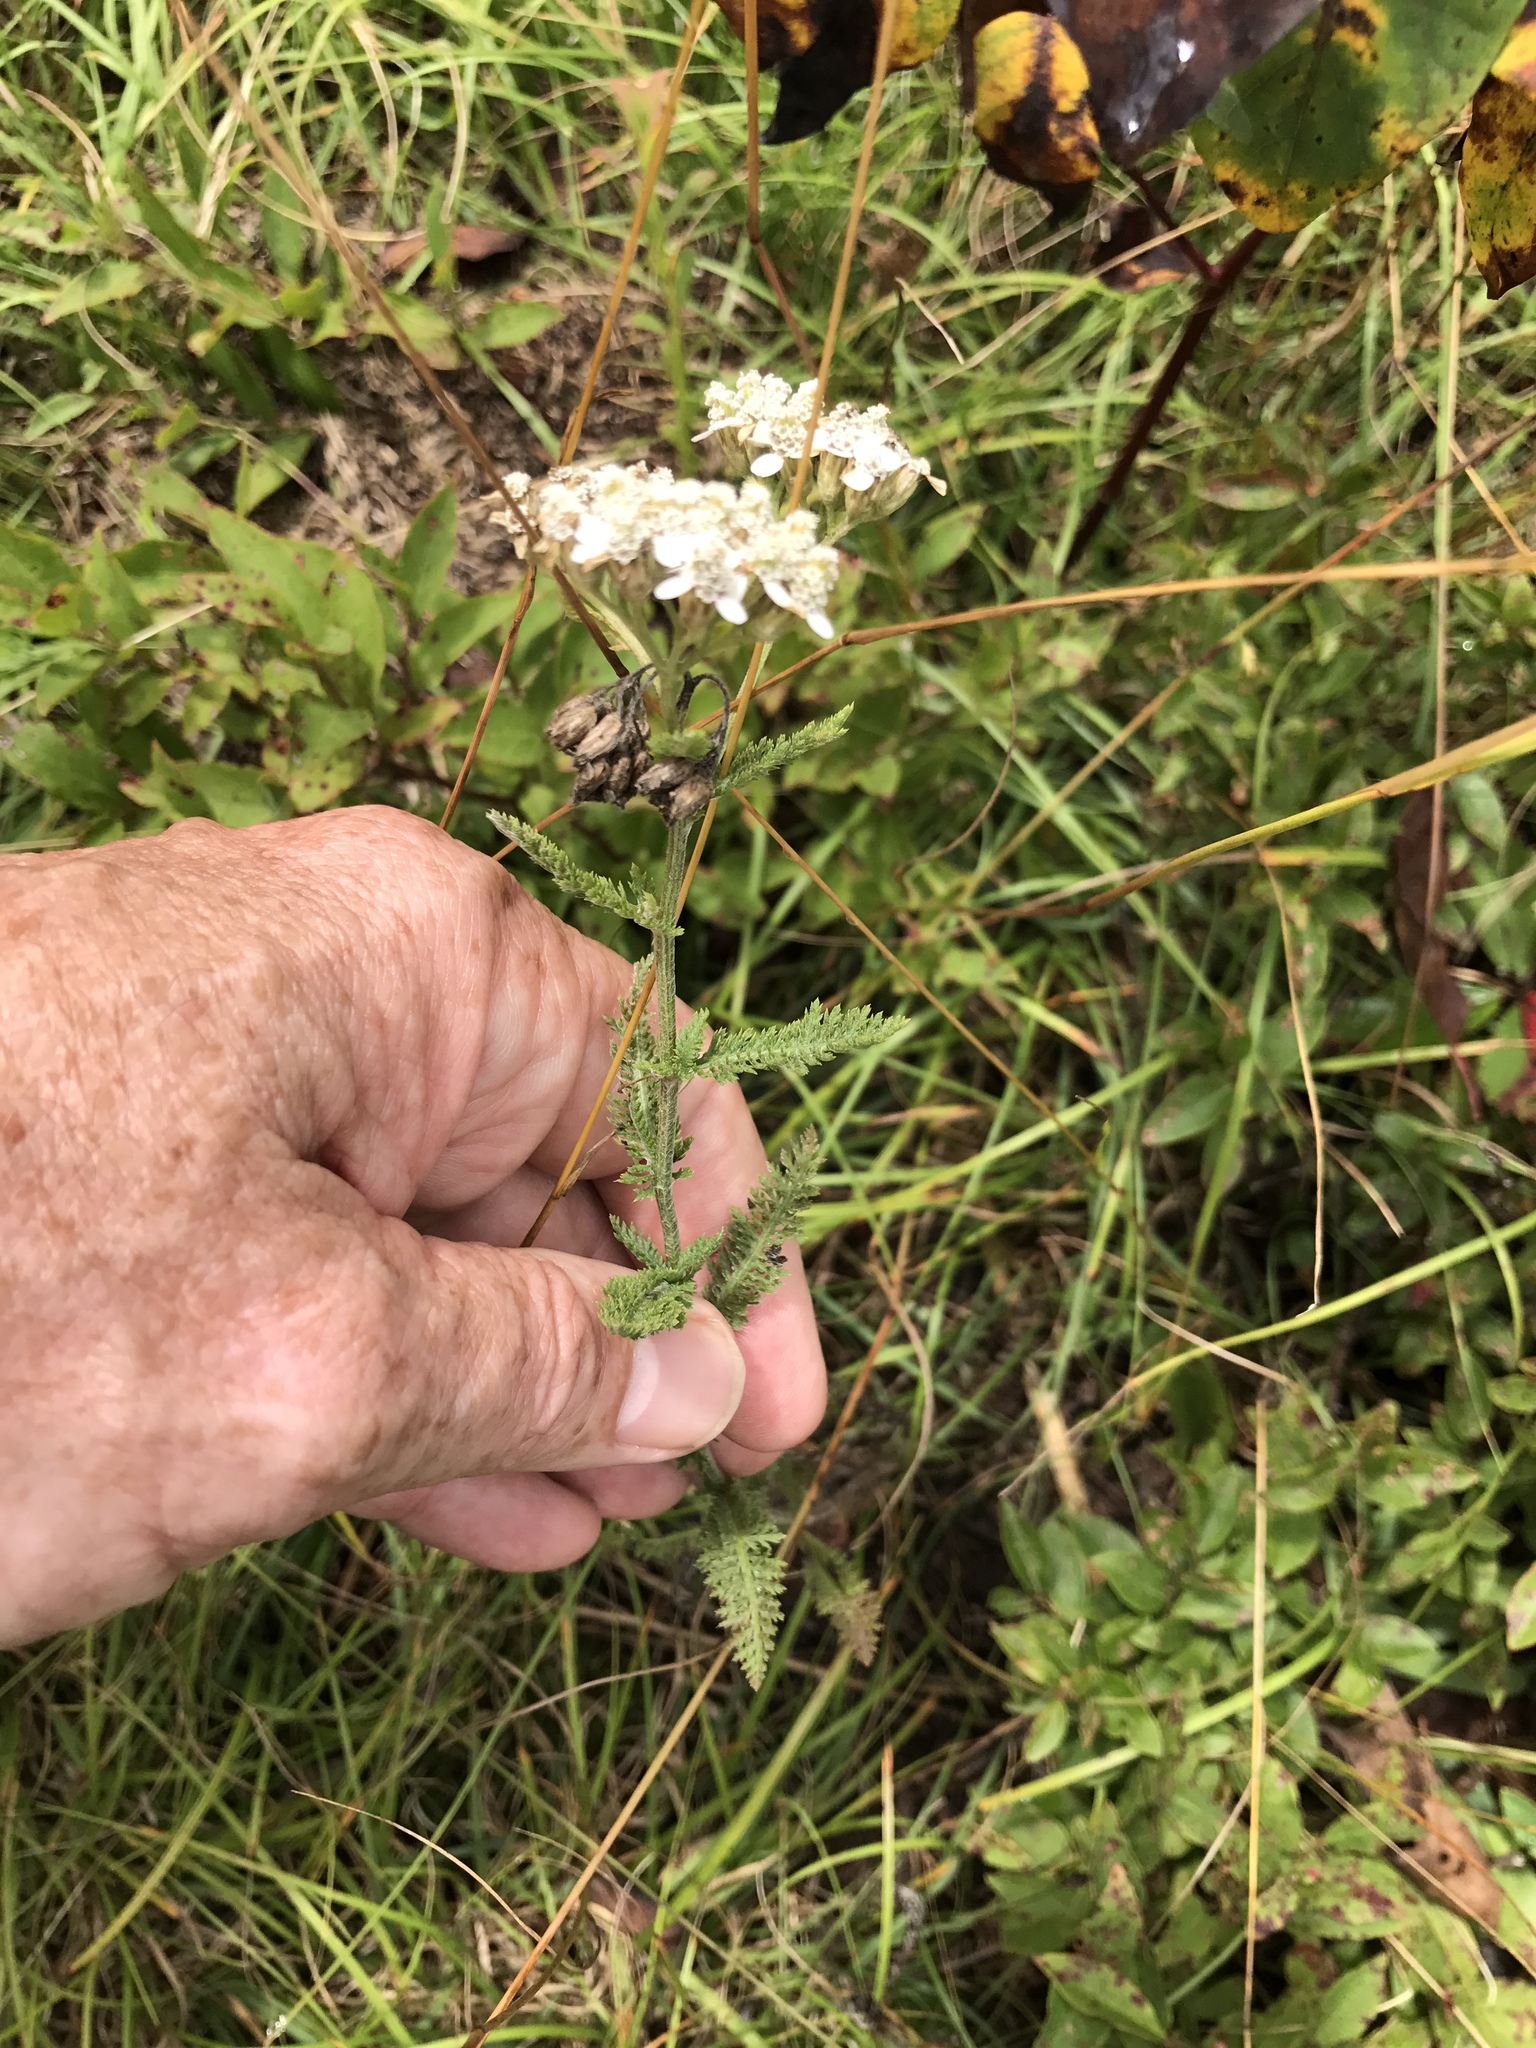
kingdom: Plantae
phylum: Tracheophyta
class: Magnoliopsida
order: Asterales
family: Asteraceae
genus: Achillea
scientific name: Achillea millefolium
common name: Yarrow
